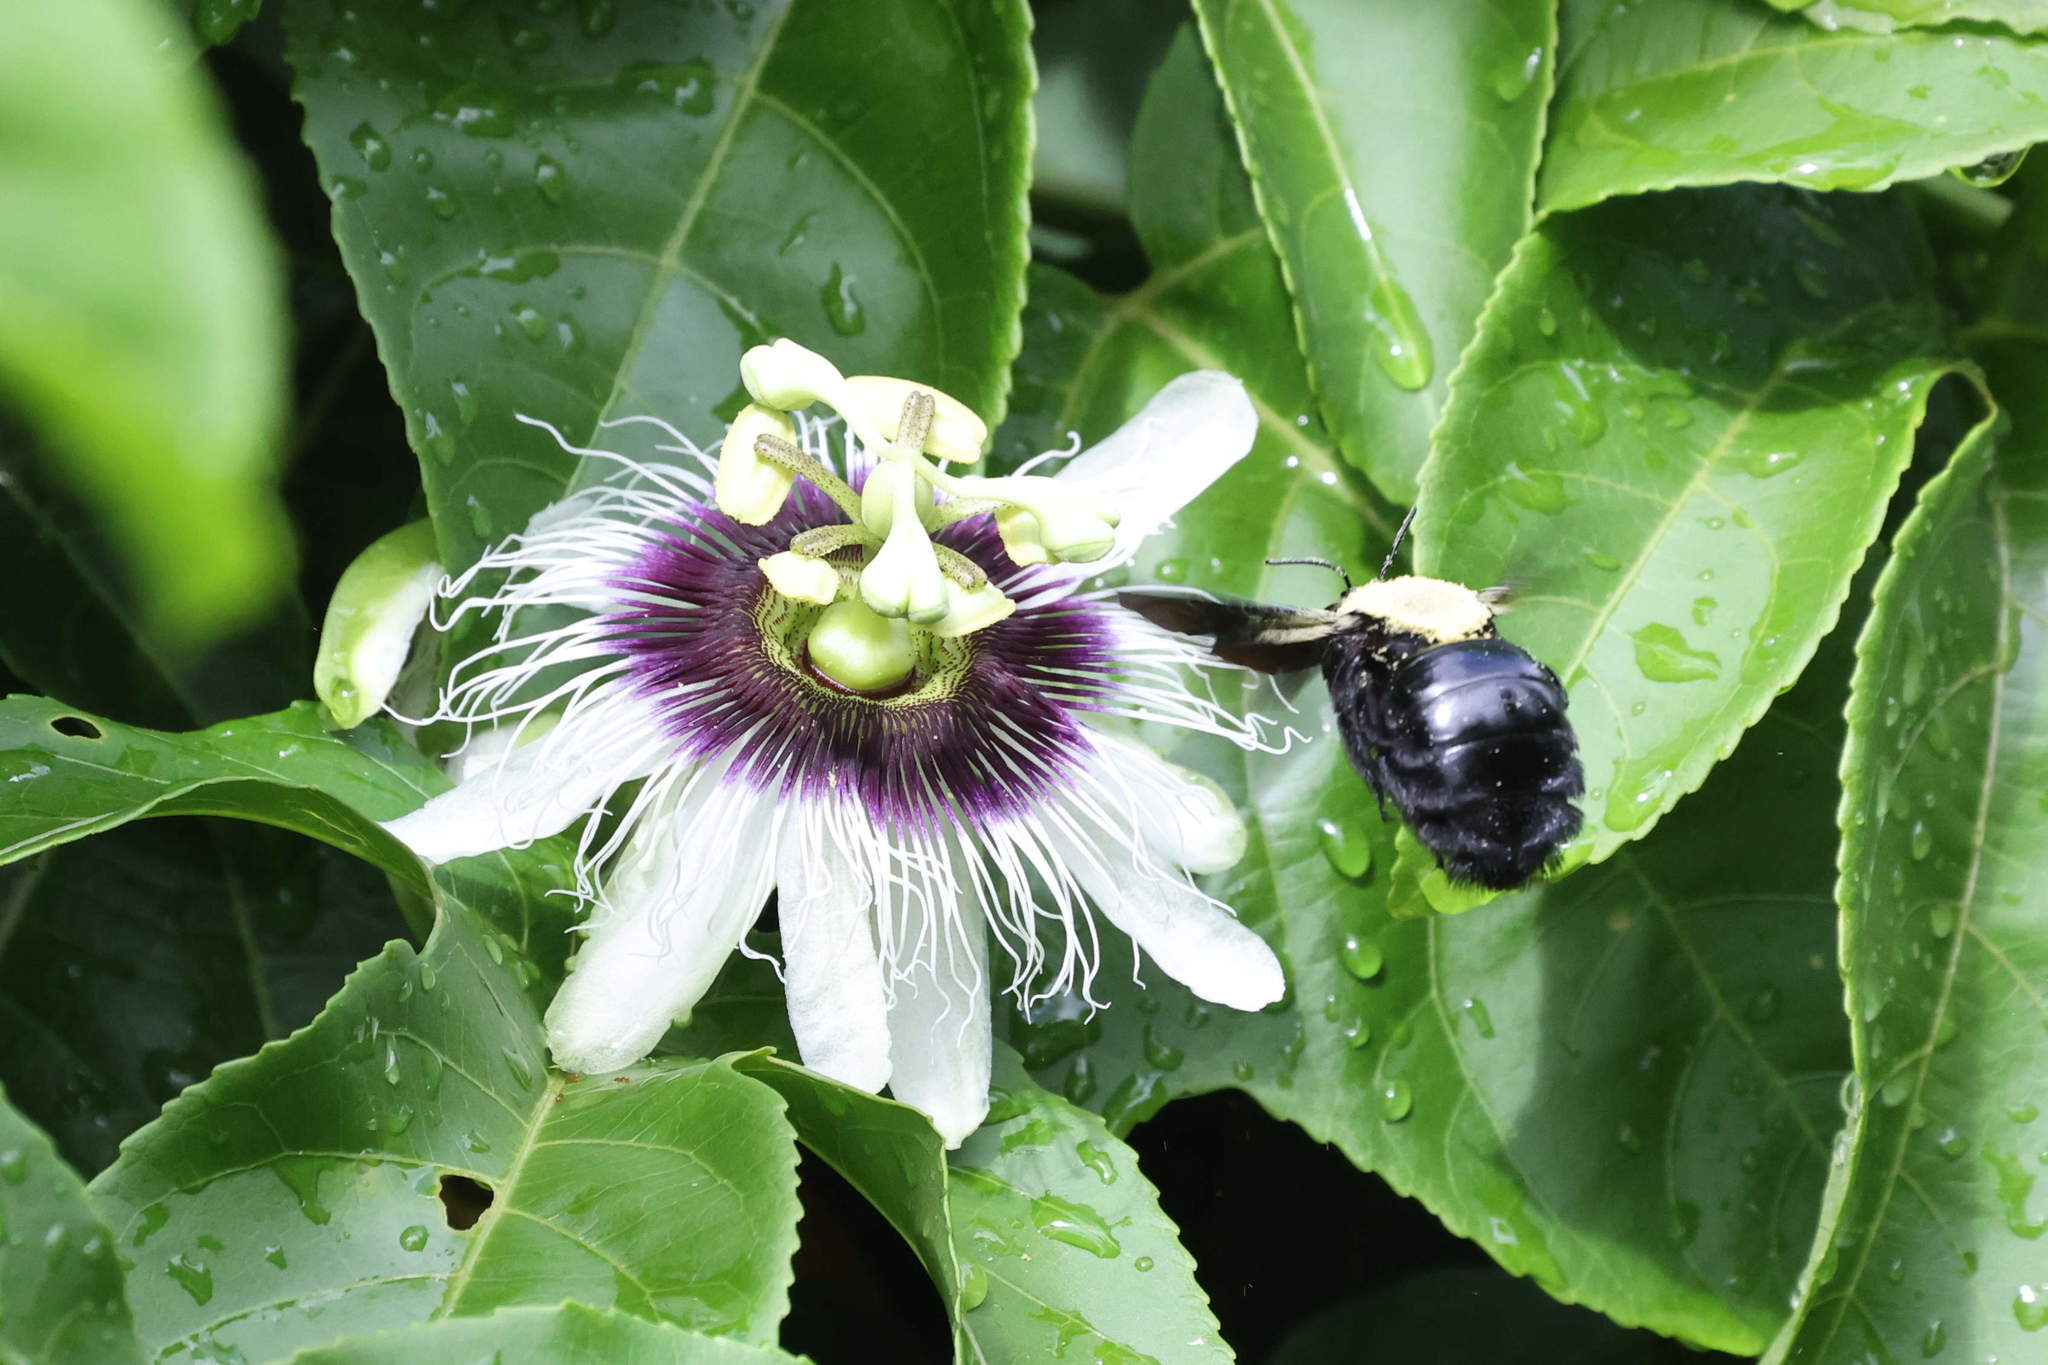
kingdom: Plantae
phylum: Tracheophyta
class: Magnoliopsida
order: Malpighiales
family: Passifloraceae
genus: Passiflora
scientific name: Passiflora edulis
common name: Purple granadilla
